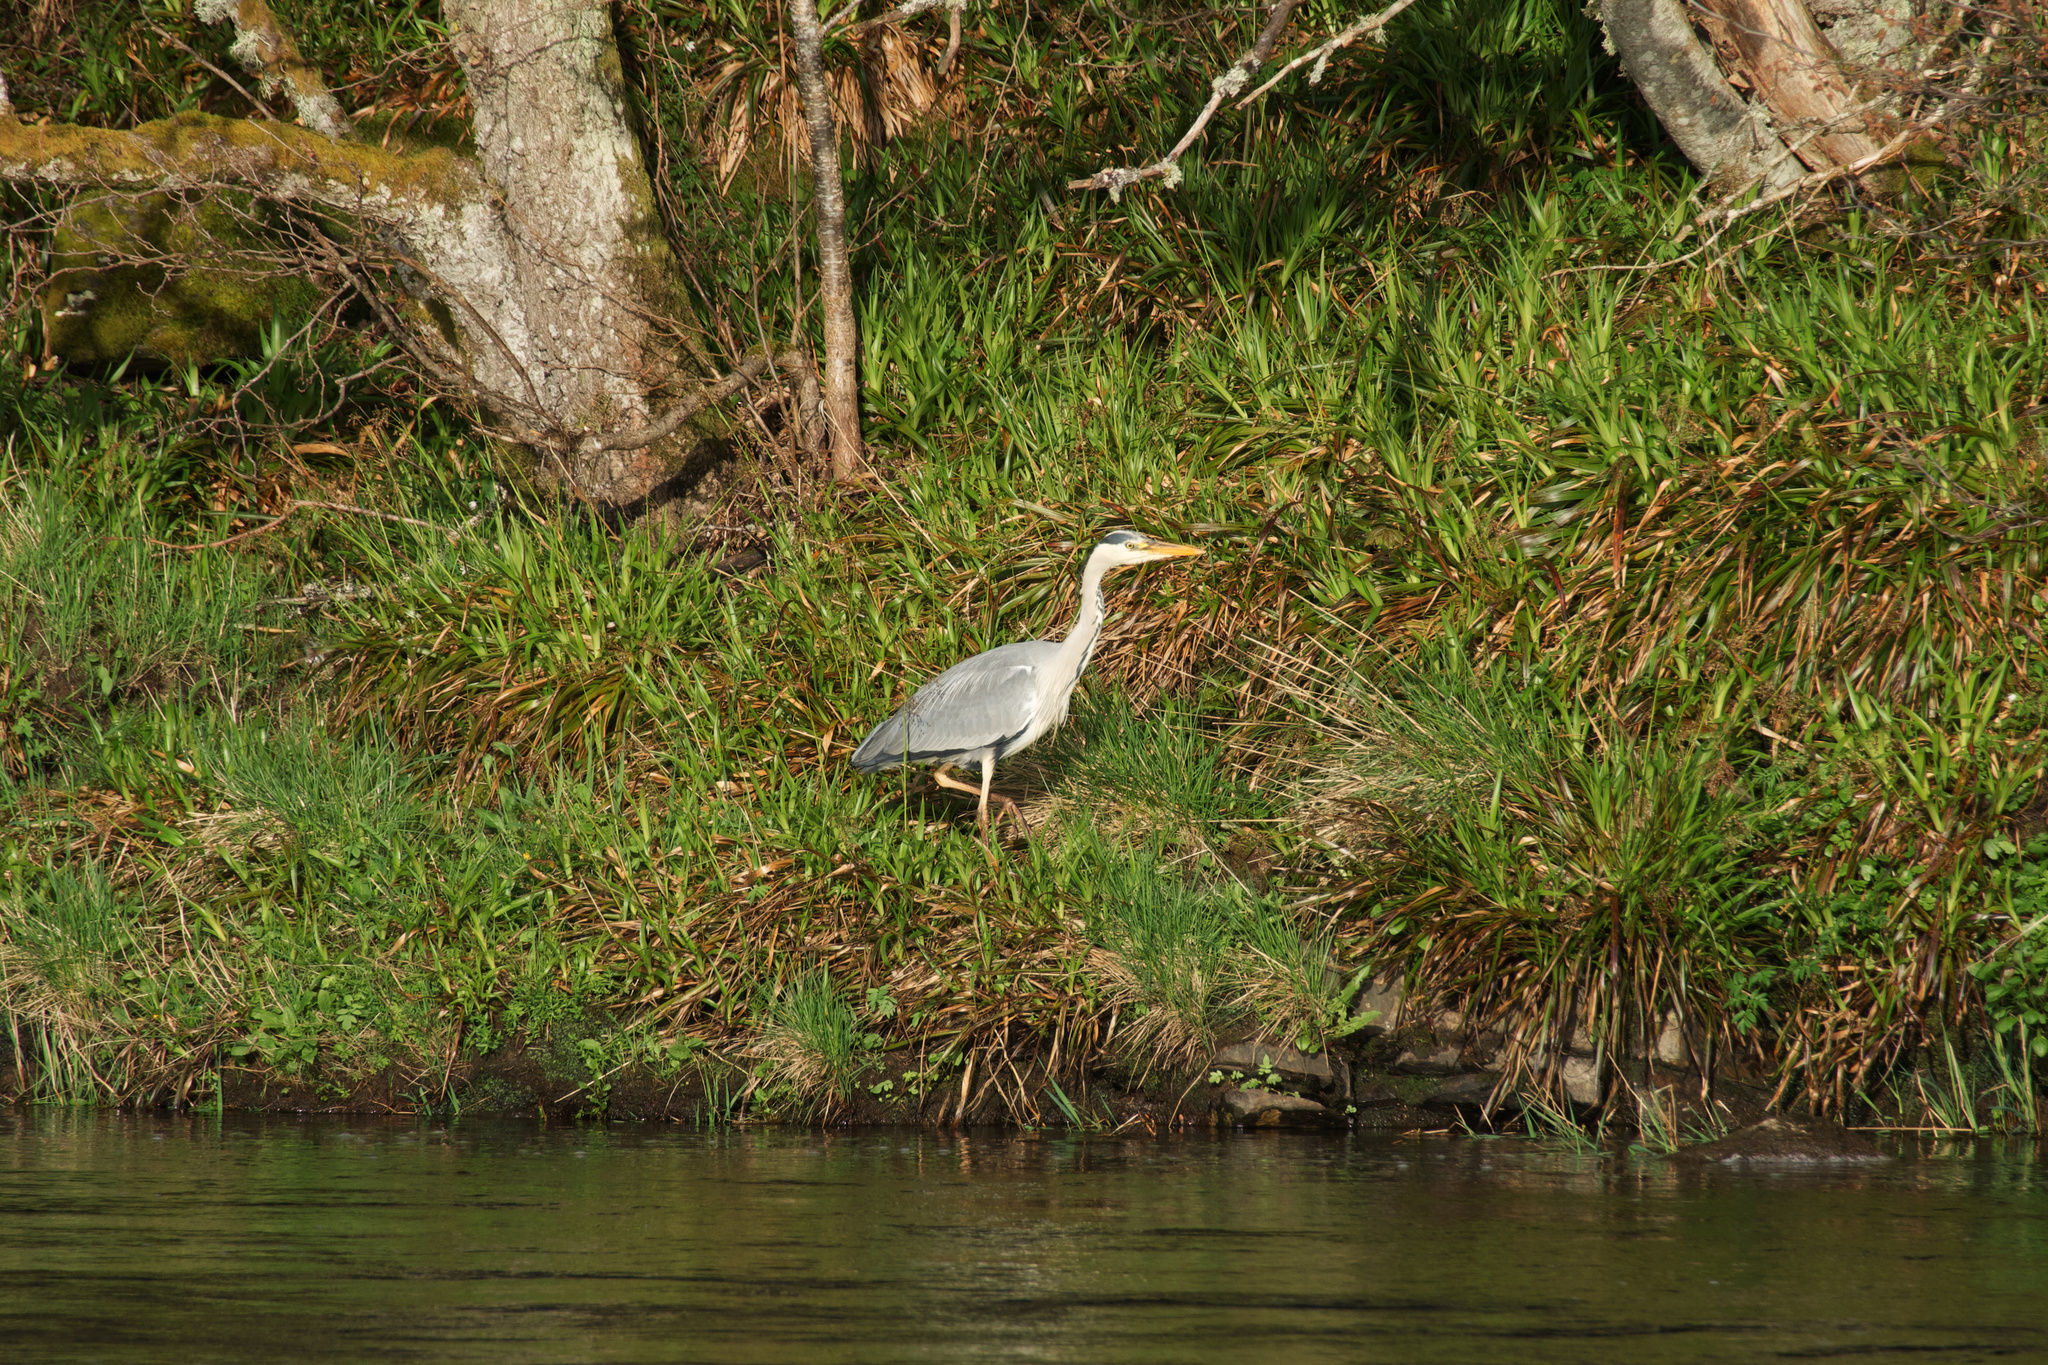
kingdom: Animalia
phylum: Chordata
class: Aves
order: Pelecaniformes
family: Ardeidae
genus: Ardea
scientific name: Ardea cinerea
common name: Grey heron
